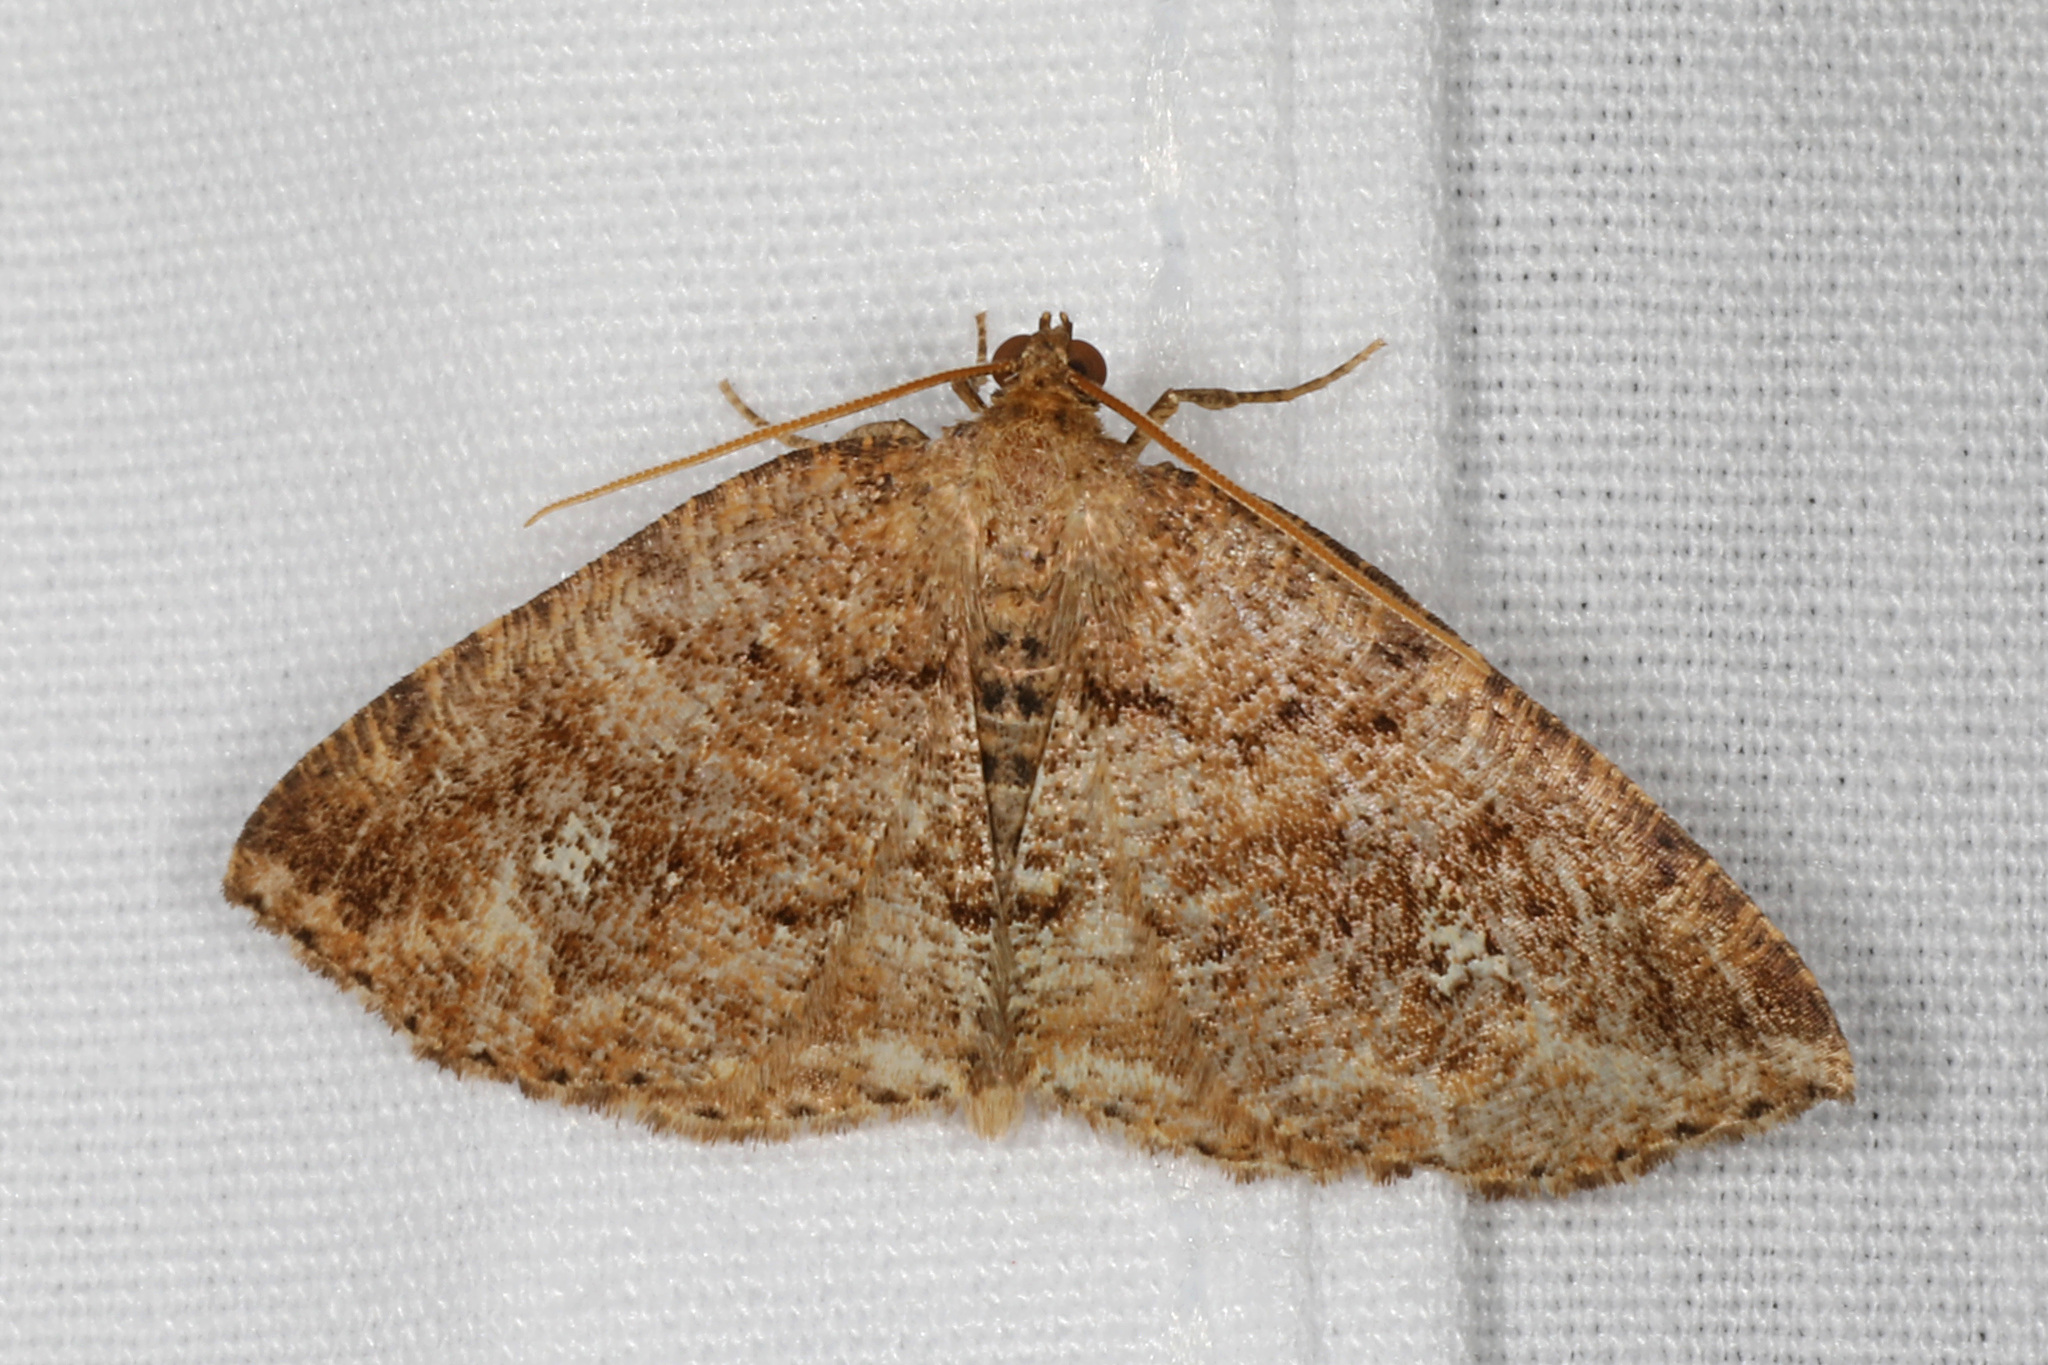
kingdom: Animalia
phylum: Arthropoda
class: Insecta
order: Lepidoptera
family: Geometridae
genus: Homochlodes
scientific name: Homochlodes fritillaria
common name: Pale homochlodes
